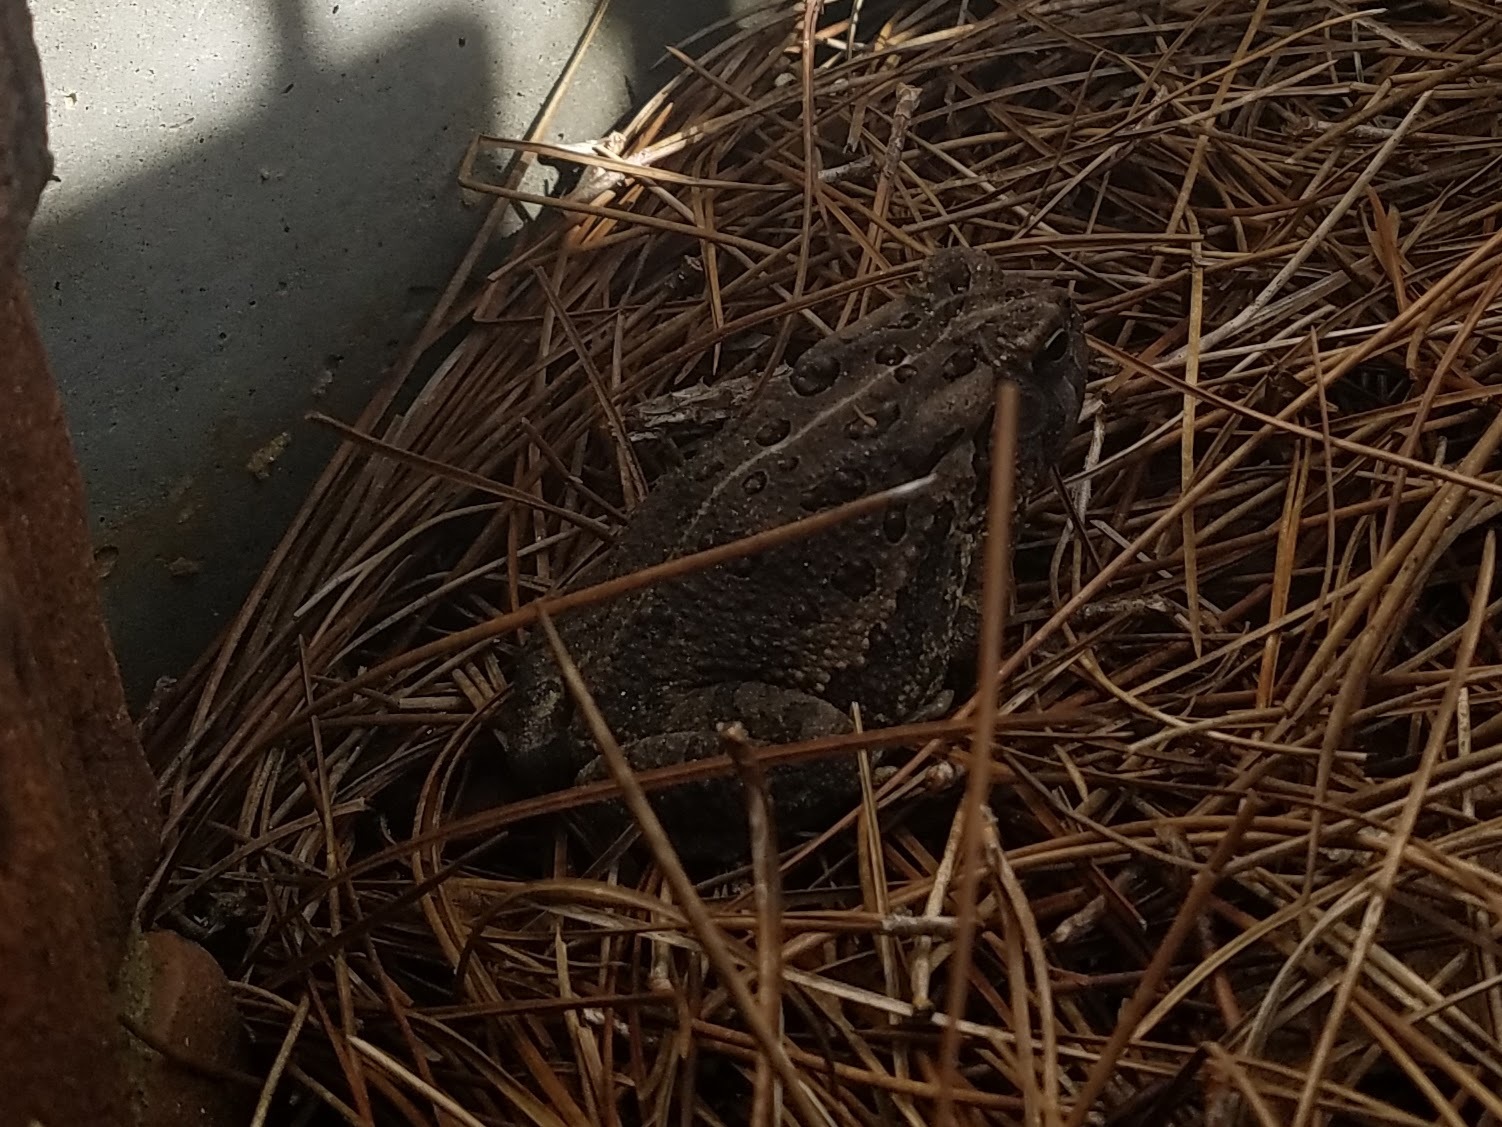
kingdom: Animalia
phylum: Chordata
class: Amphibia
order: Anura
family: Bufonidae
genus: Anaxyrus
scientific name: Anaxyrus fowleri
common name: Fowler's toad
